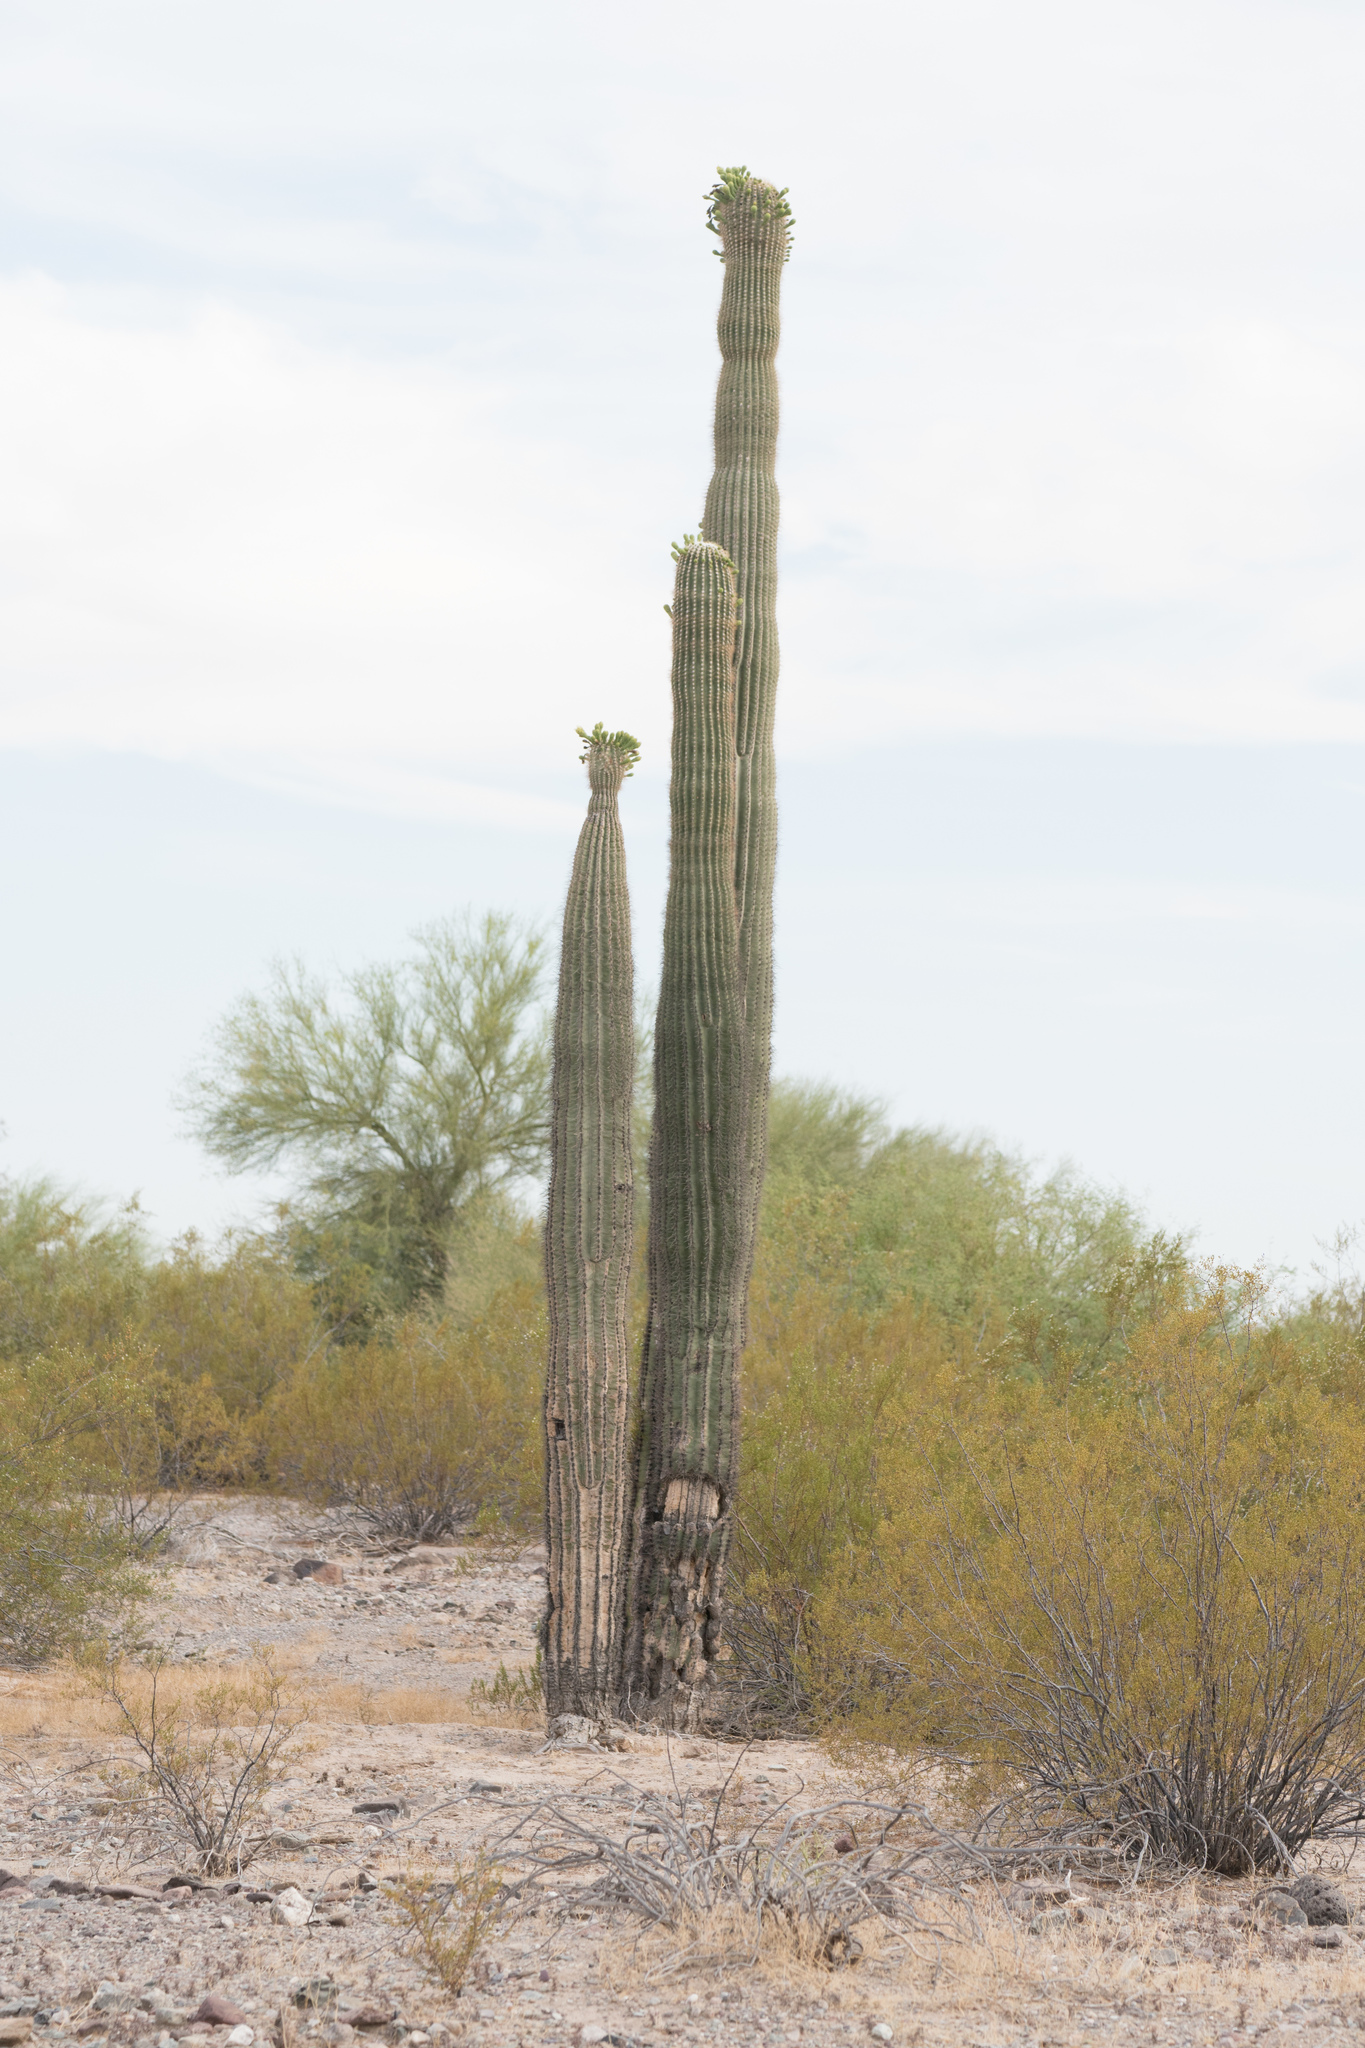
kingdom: Plantae
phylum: Tracheophyta
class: Magnoliopsida
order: Caryophyllales
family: Cactaceae
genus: Carnegiea
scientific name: Carnegiea gigantea
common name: Saguaro
